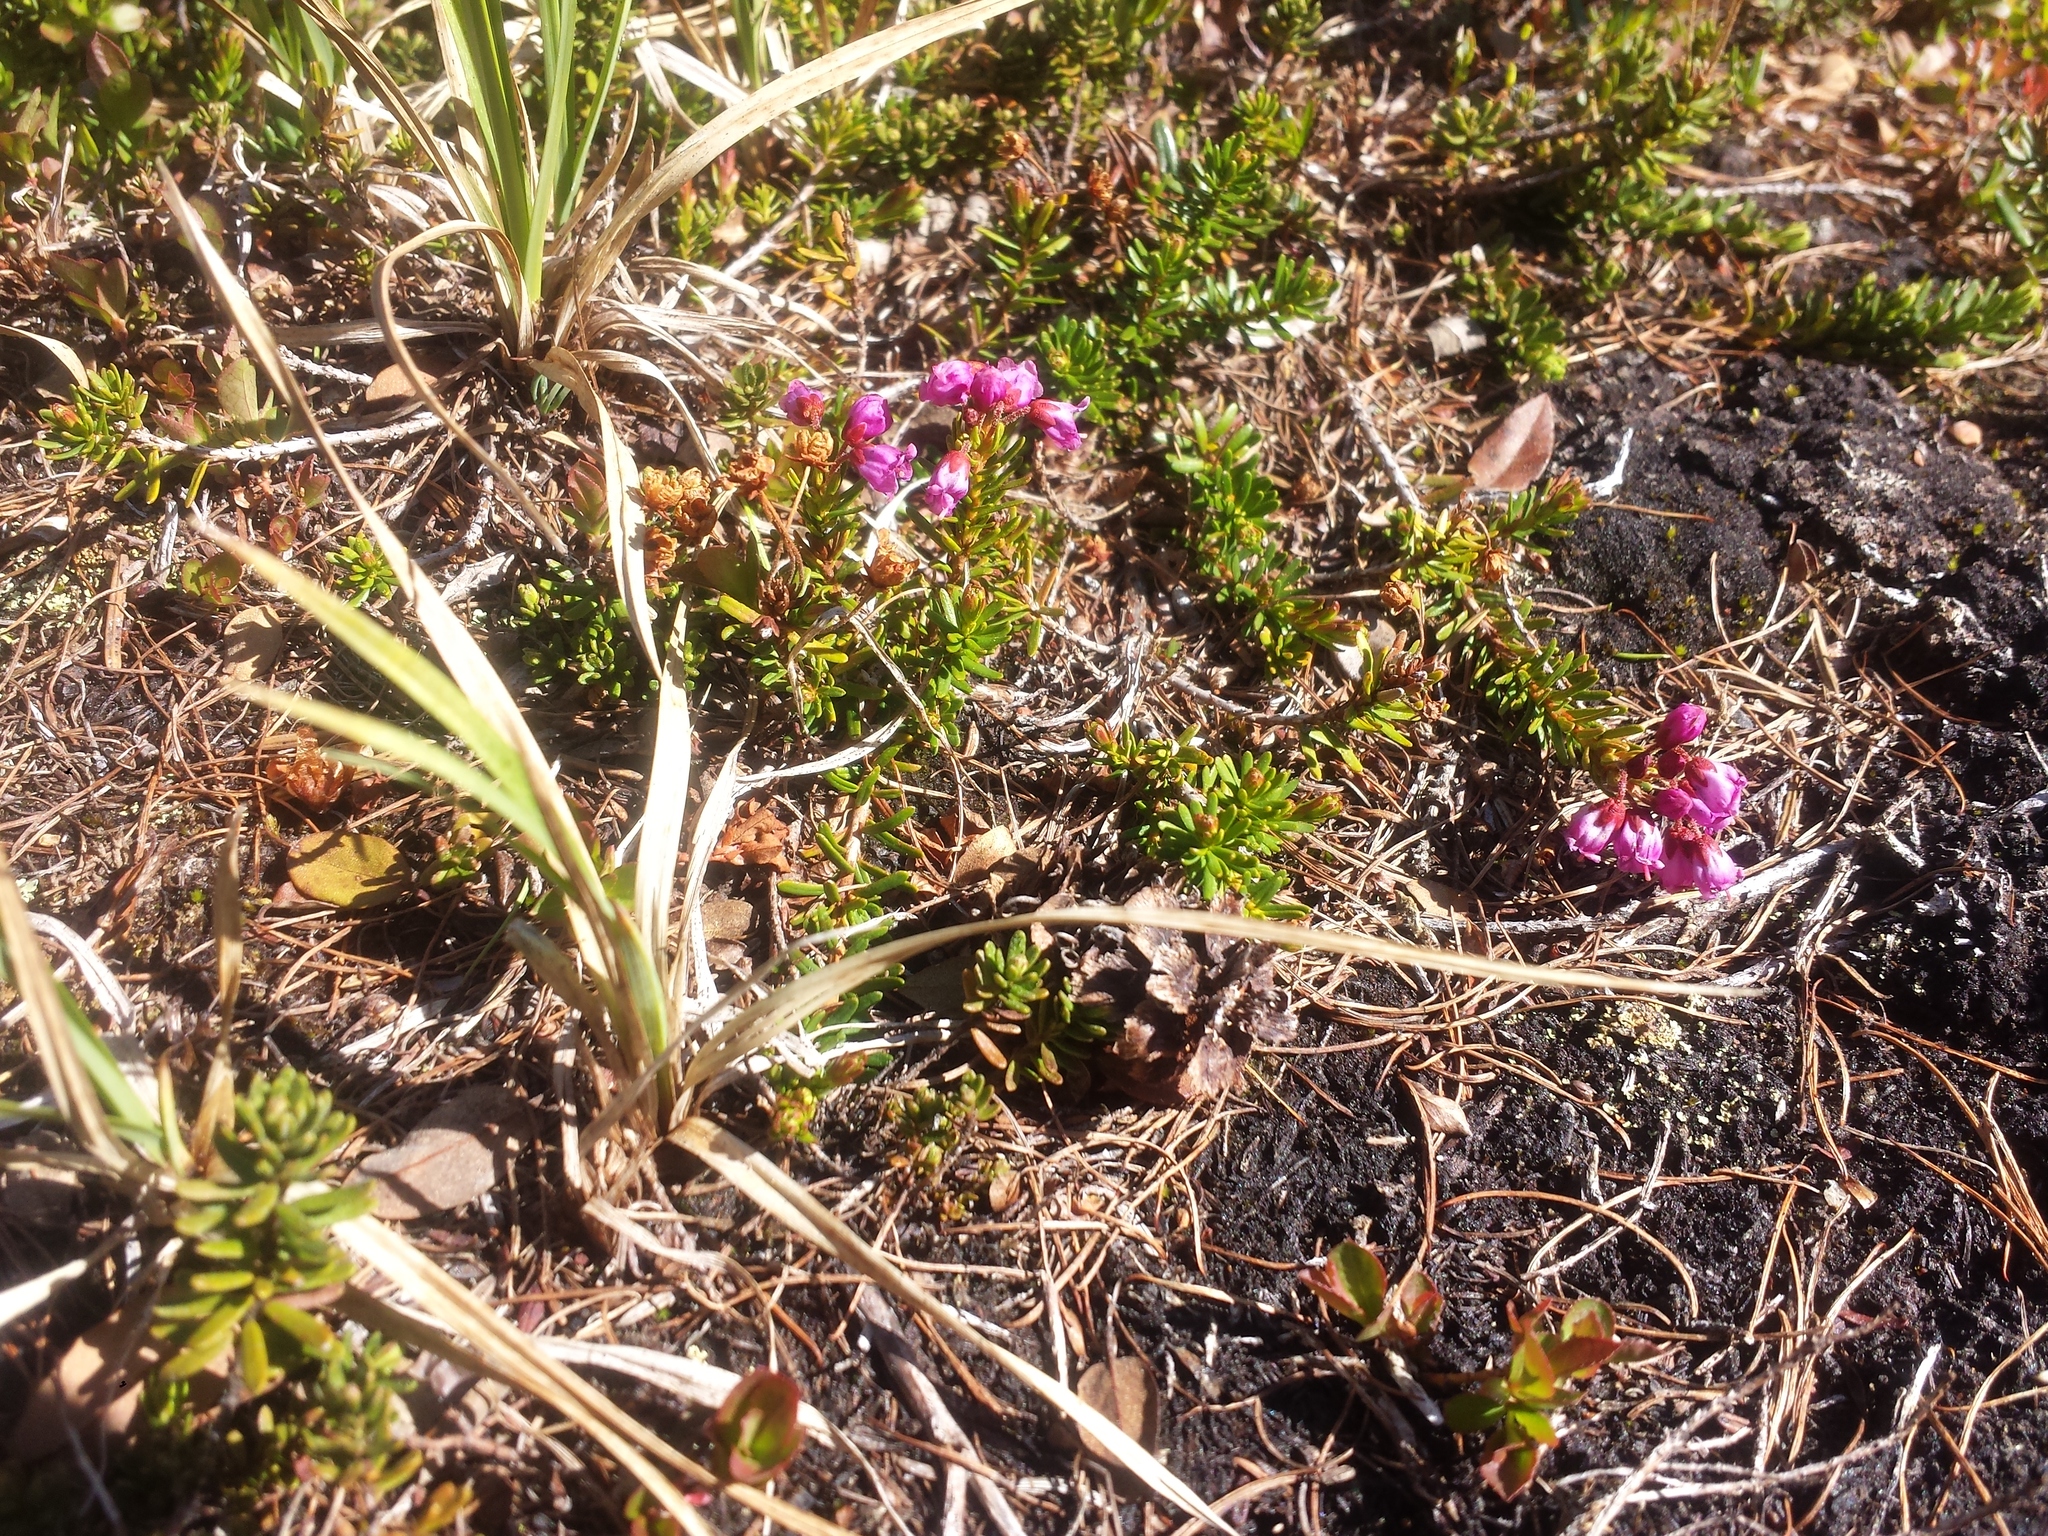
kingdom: Plantae
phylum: Tracheophyta
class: Magnoliopsida
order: Ericales
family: Ericaceae
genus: Phyllodoce
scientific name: Phyllodoce empetriformis
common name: Pink mountain heather
